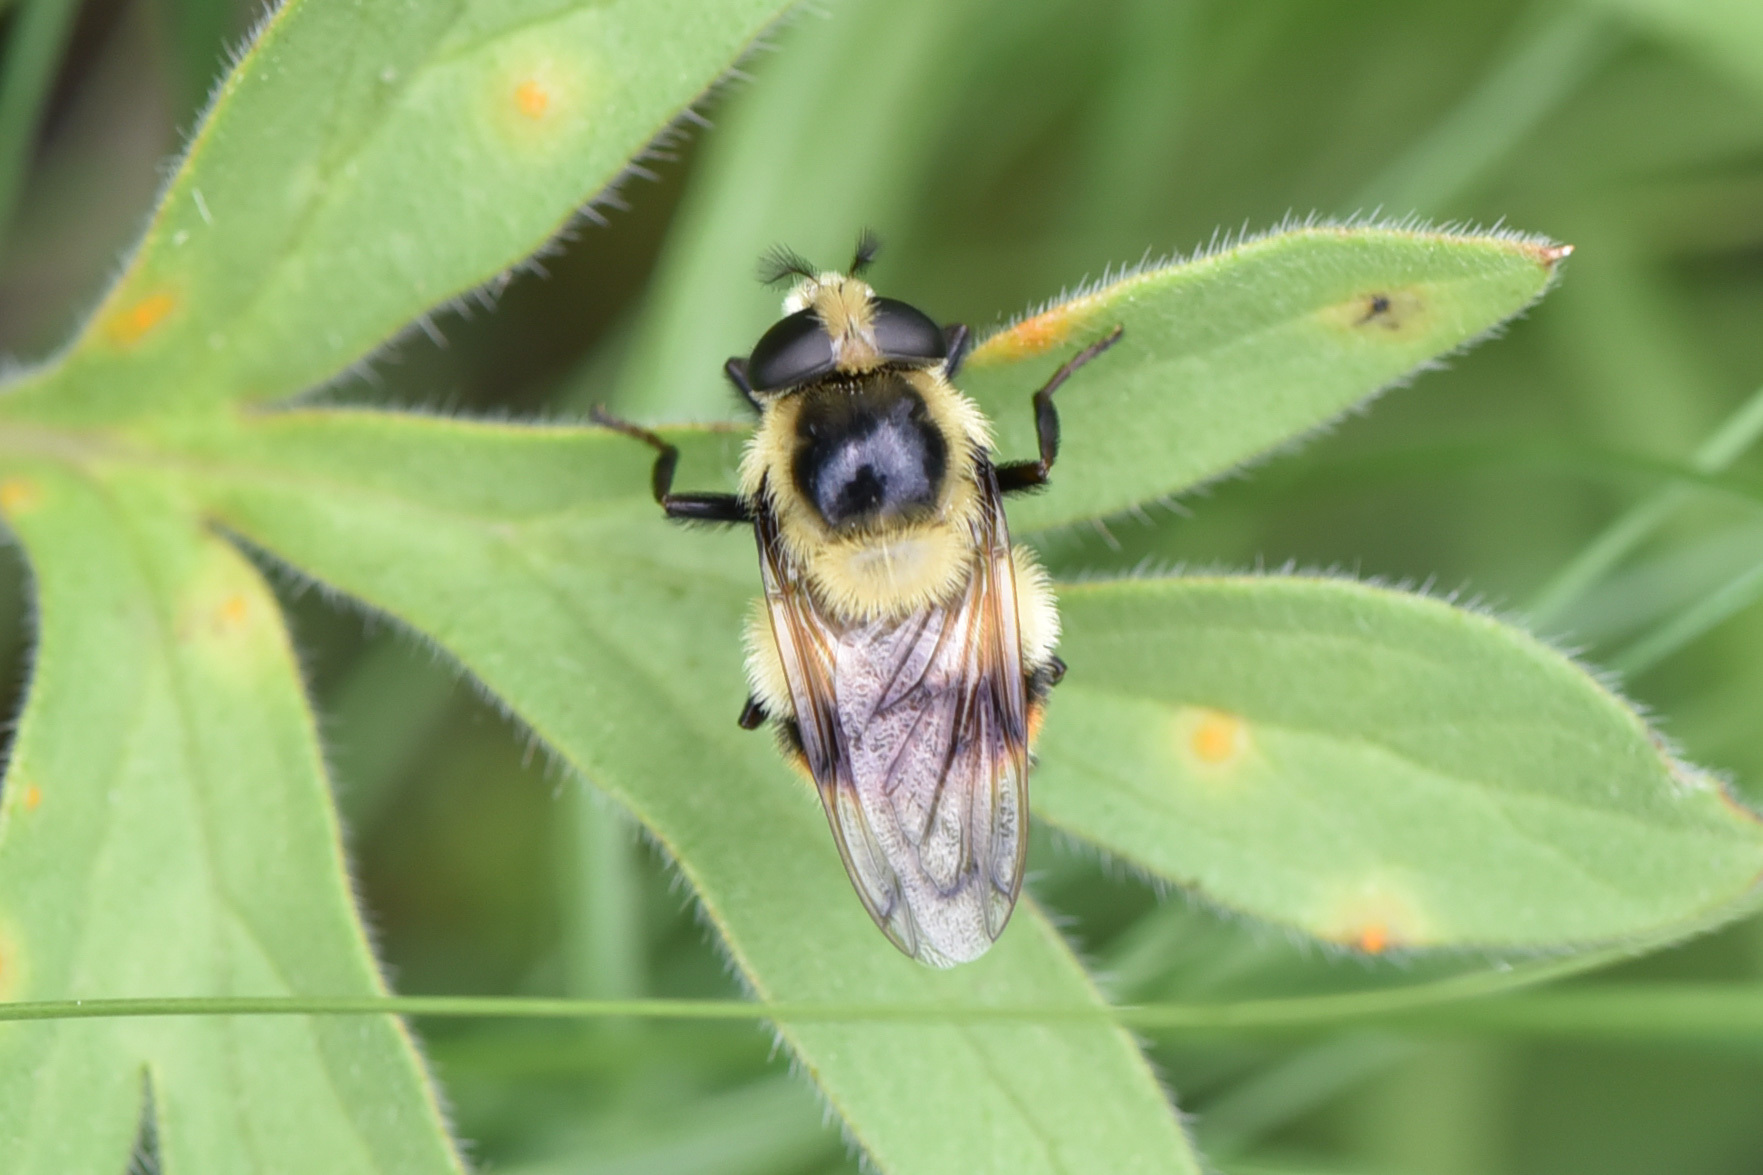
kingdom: Animalia
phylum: Arthropoda
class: Insecta
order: Diptera
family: Syrphidae
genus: Volucella
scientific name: Volucella facialis
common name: Yellow-faced swiftwing
